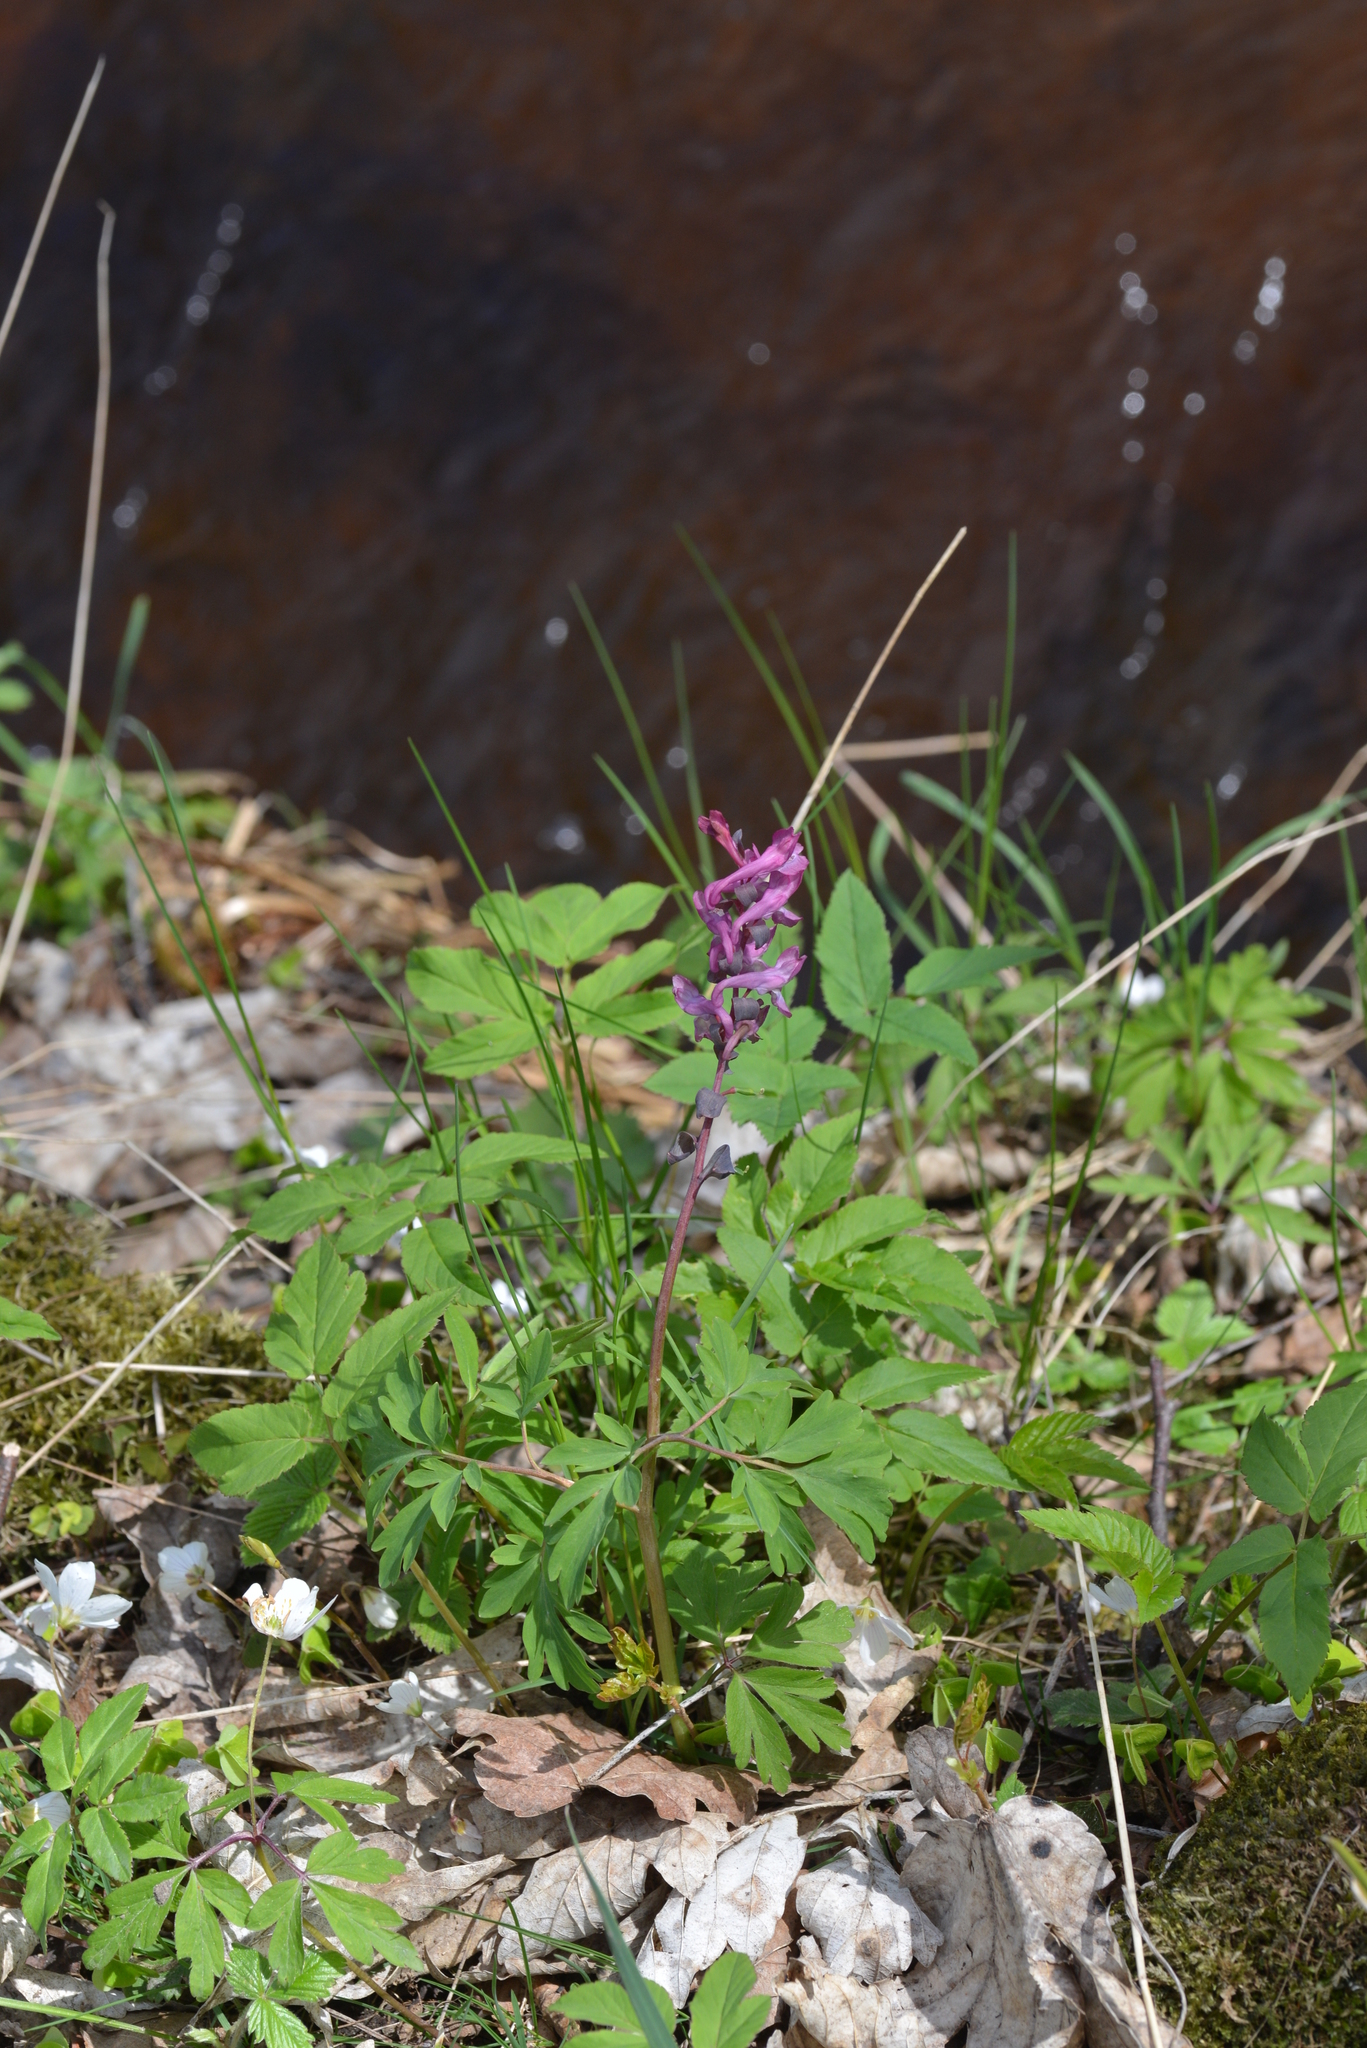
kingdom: Plantae
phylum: Tracheophyta
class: Magnoliopsida
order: Ranunculales
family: Papaveraceae
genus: Corydalis
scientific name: Corydalis cava
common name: Hollowroot
